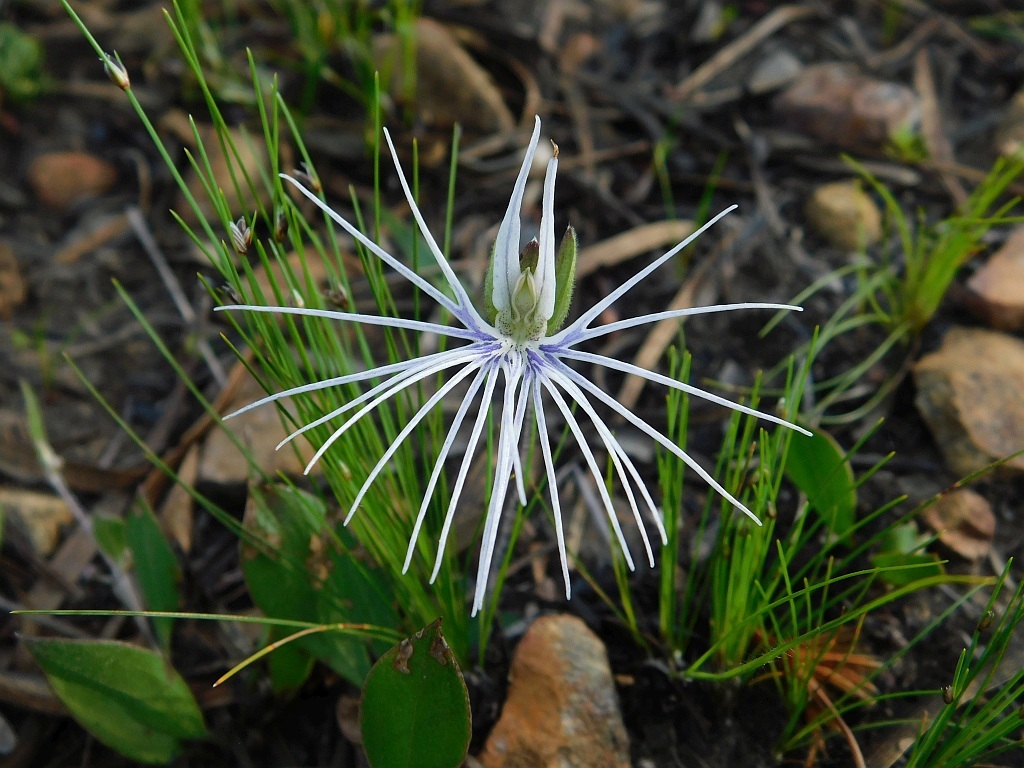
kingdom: Plantae
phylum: Tracheophyta
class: Liliopsida
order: Asparagales
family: Orchidaceae
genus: Holothrix
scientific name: Holothrix burmanniana
